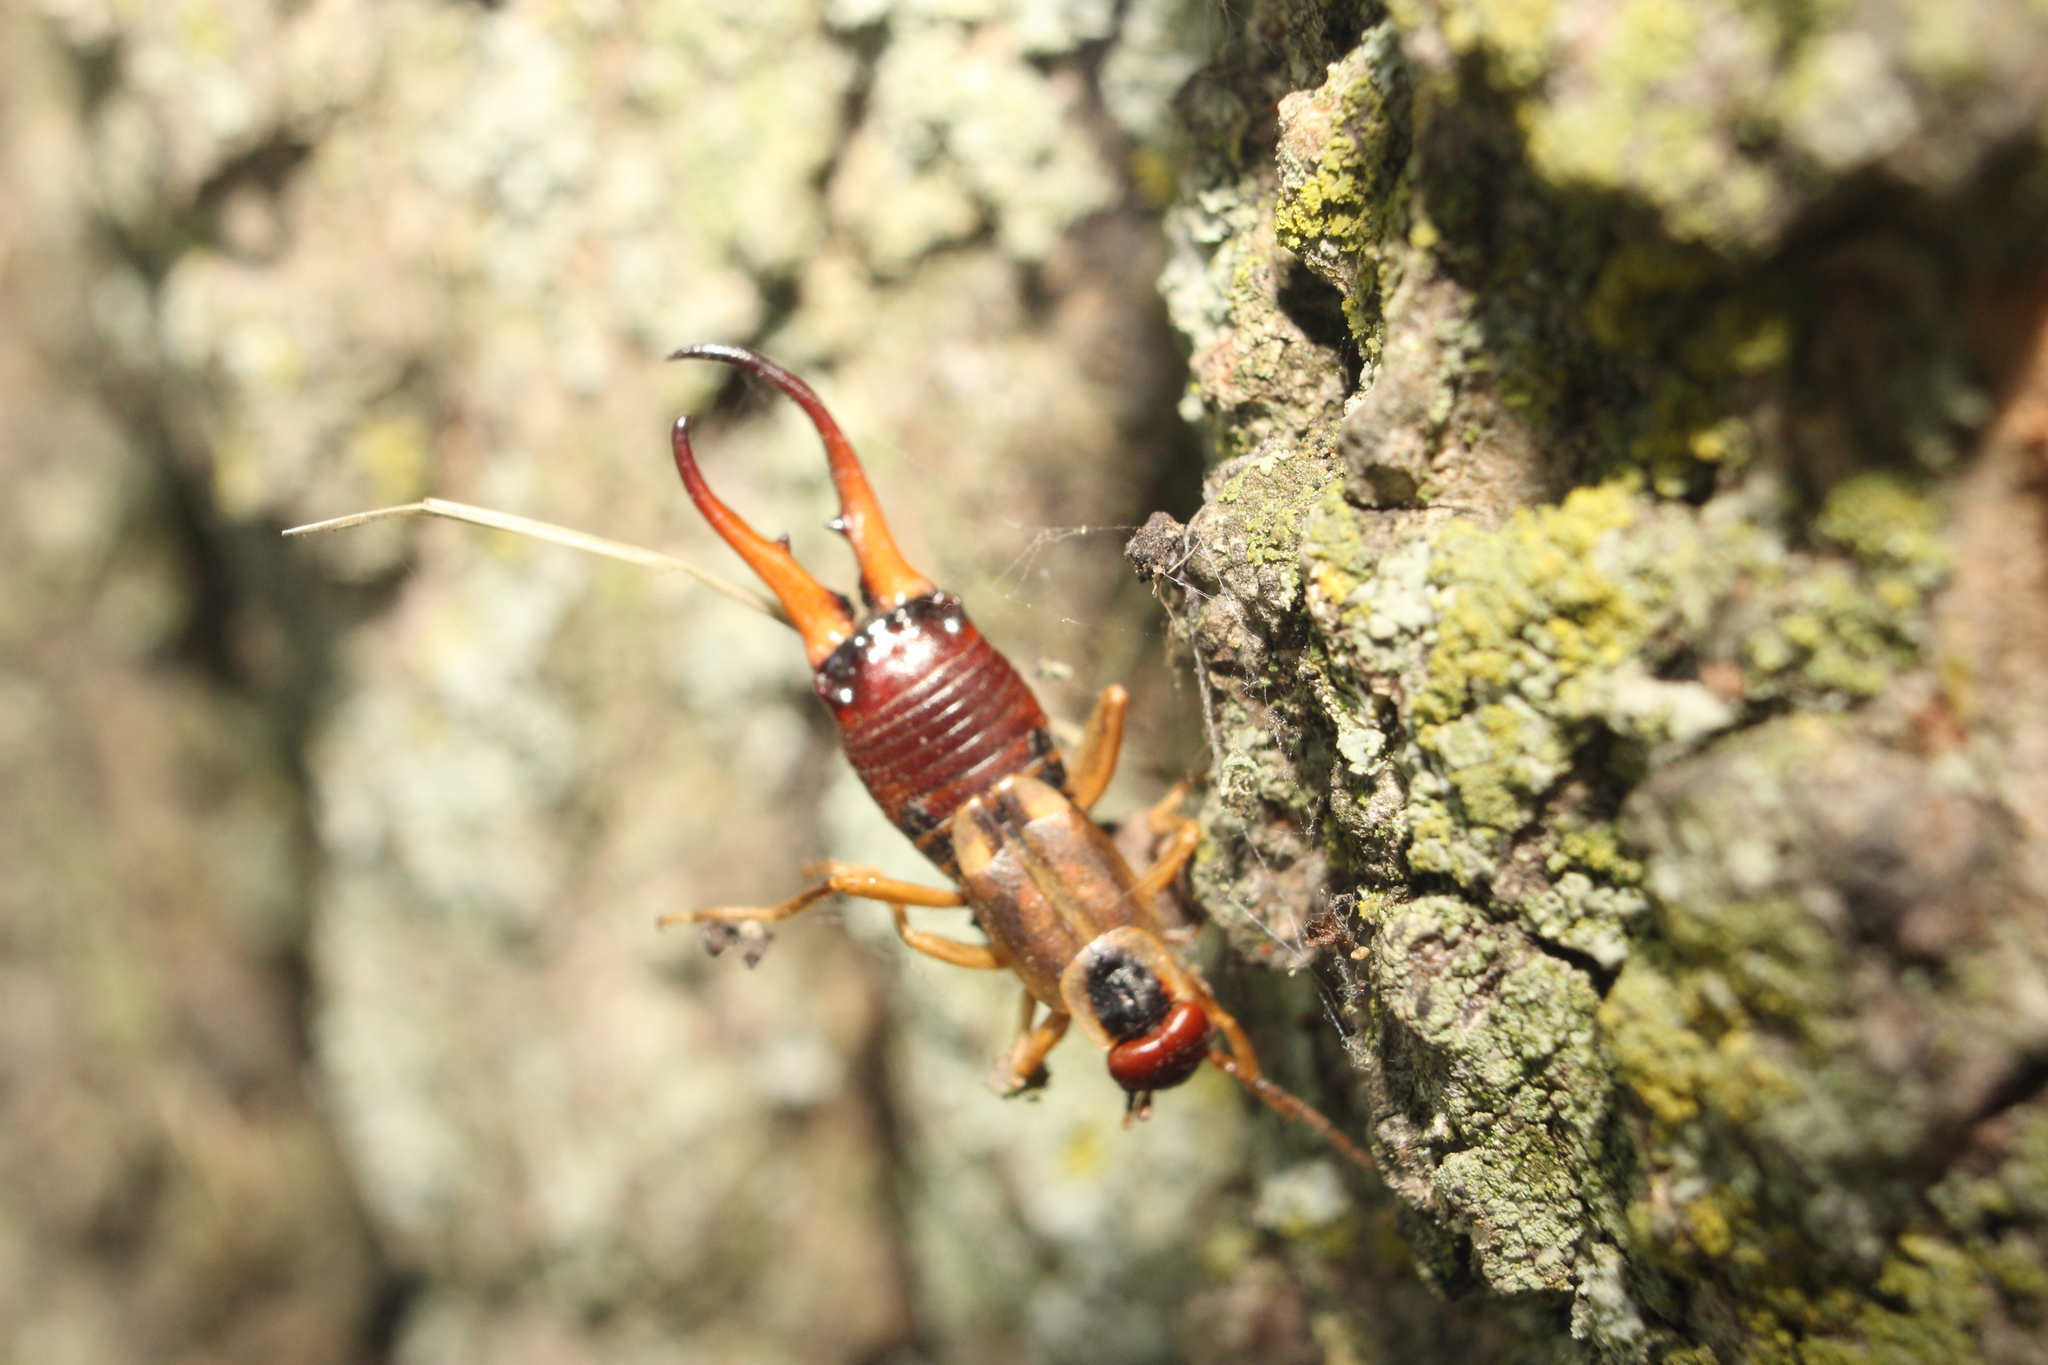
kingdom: Animalia
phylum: Arthropoda
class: Insecta
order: Dermaptera
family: Forficulidae
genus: Forficula
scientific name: Forficula
